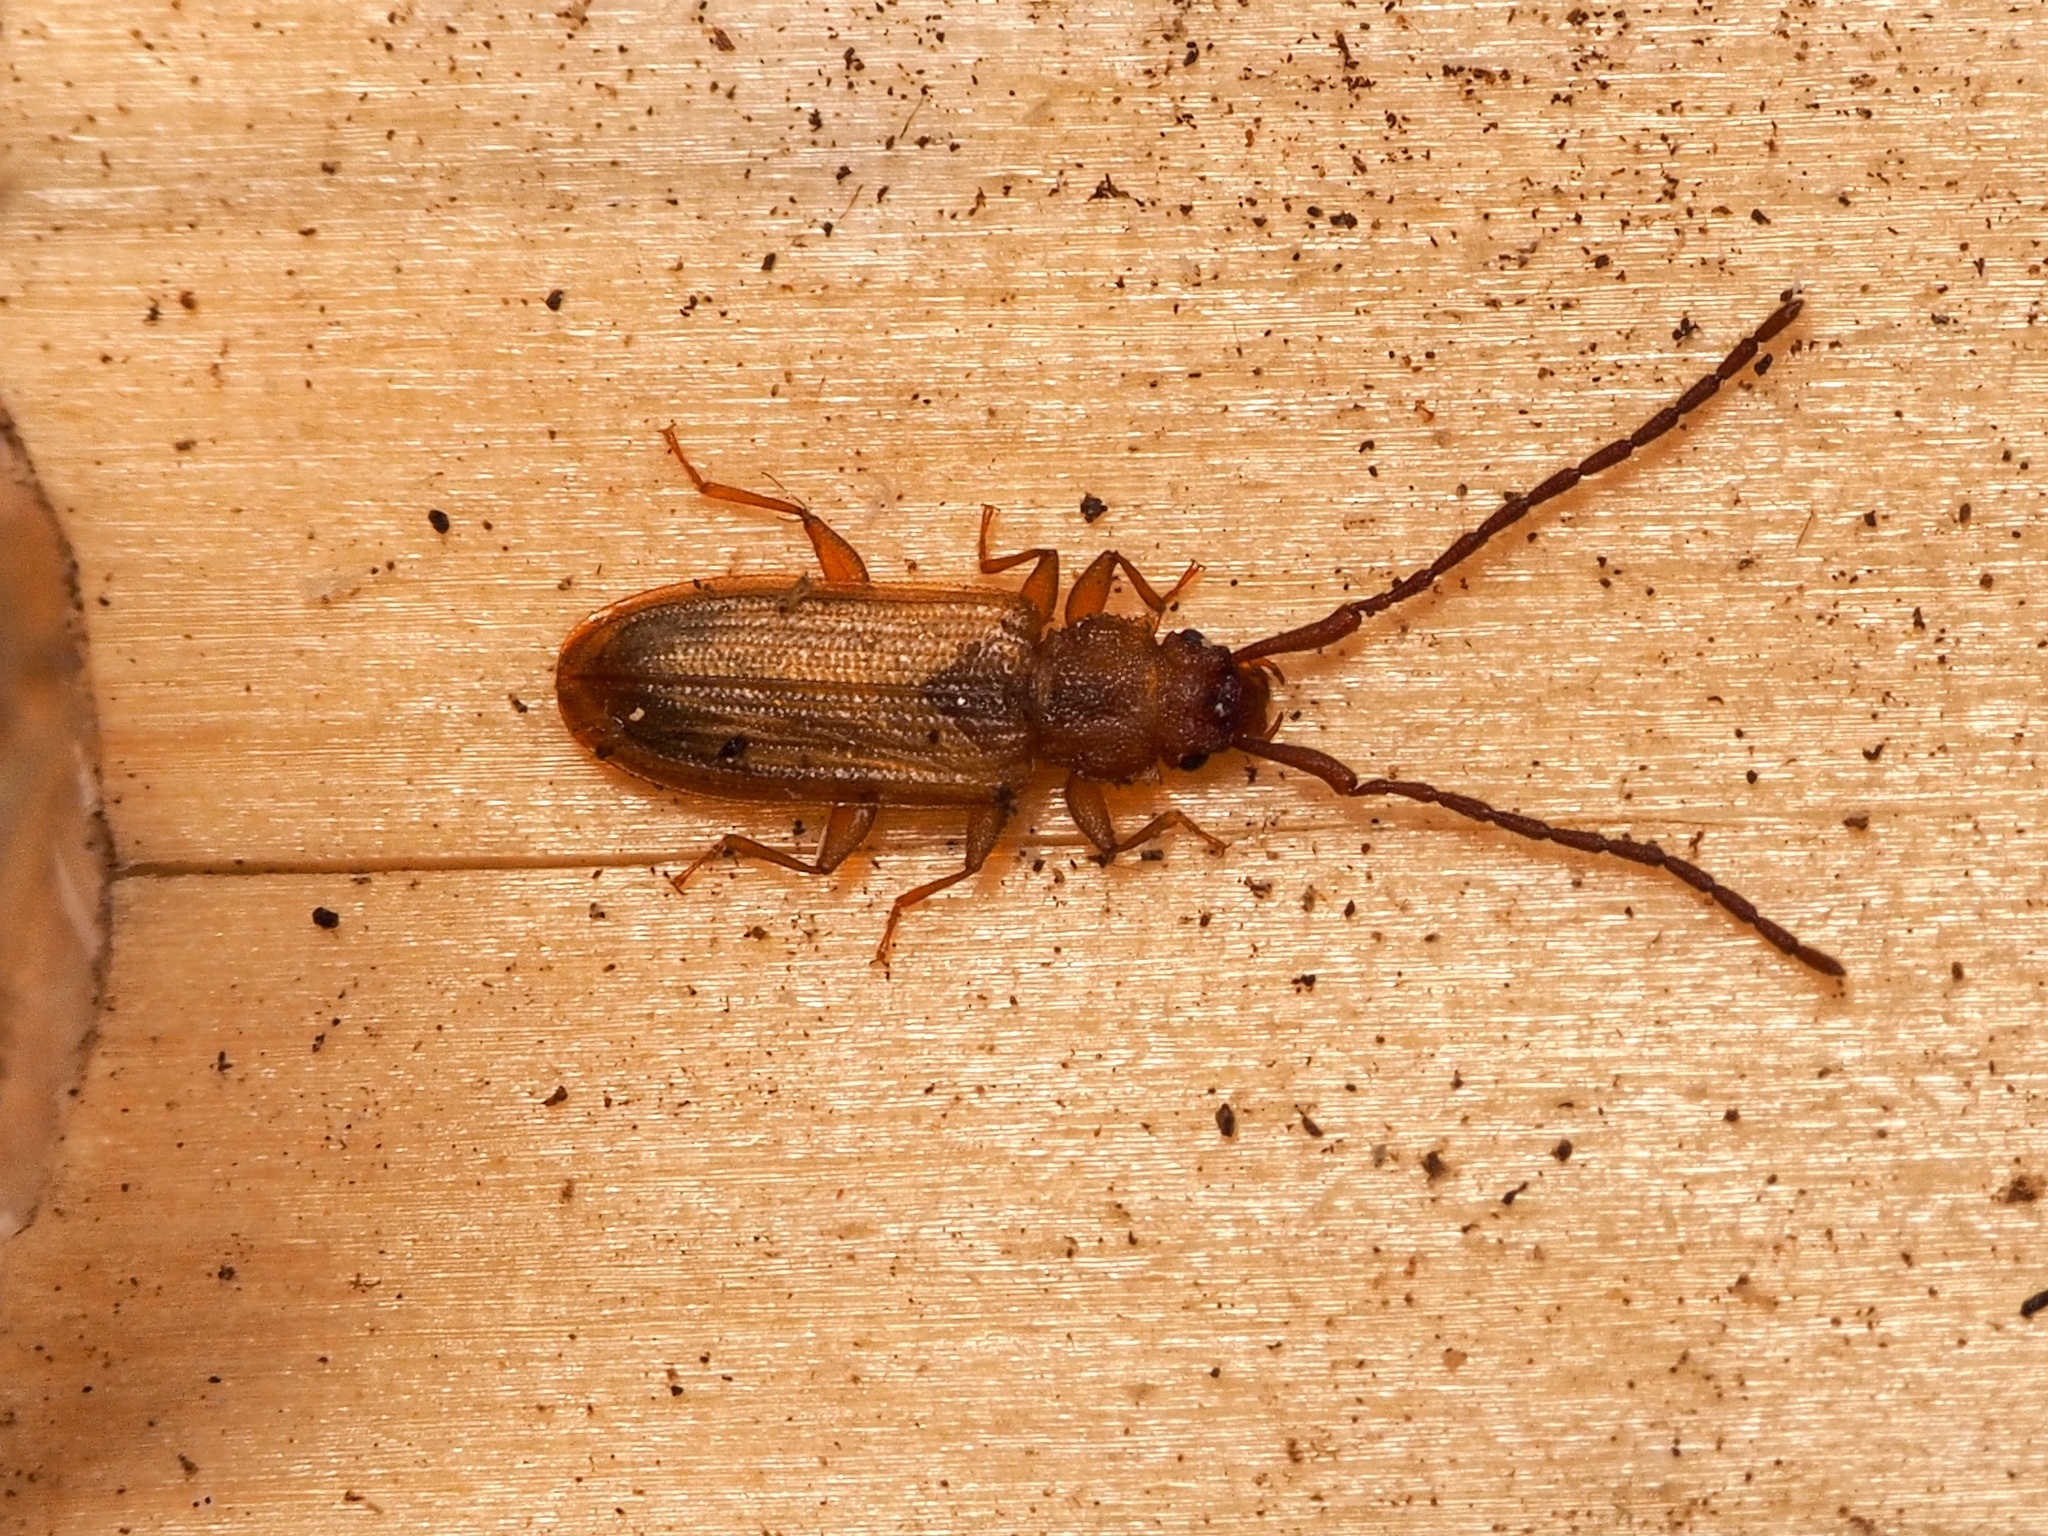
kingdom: Animalia
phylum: Arthropoda
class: Insecta
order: Coleoptera
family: Silvanidae
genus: Uleiota
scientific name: Uleiota planatus
